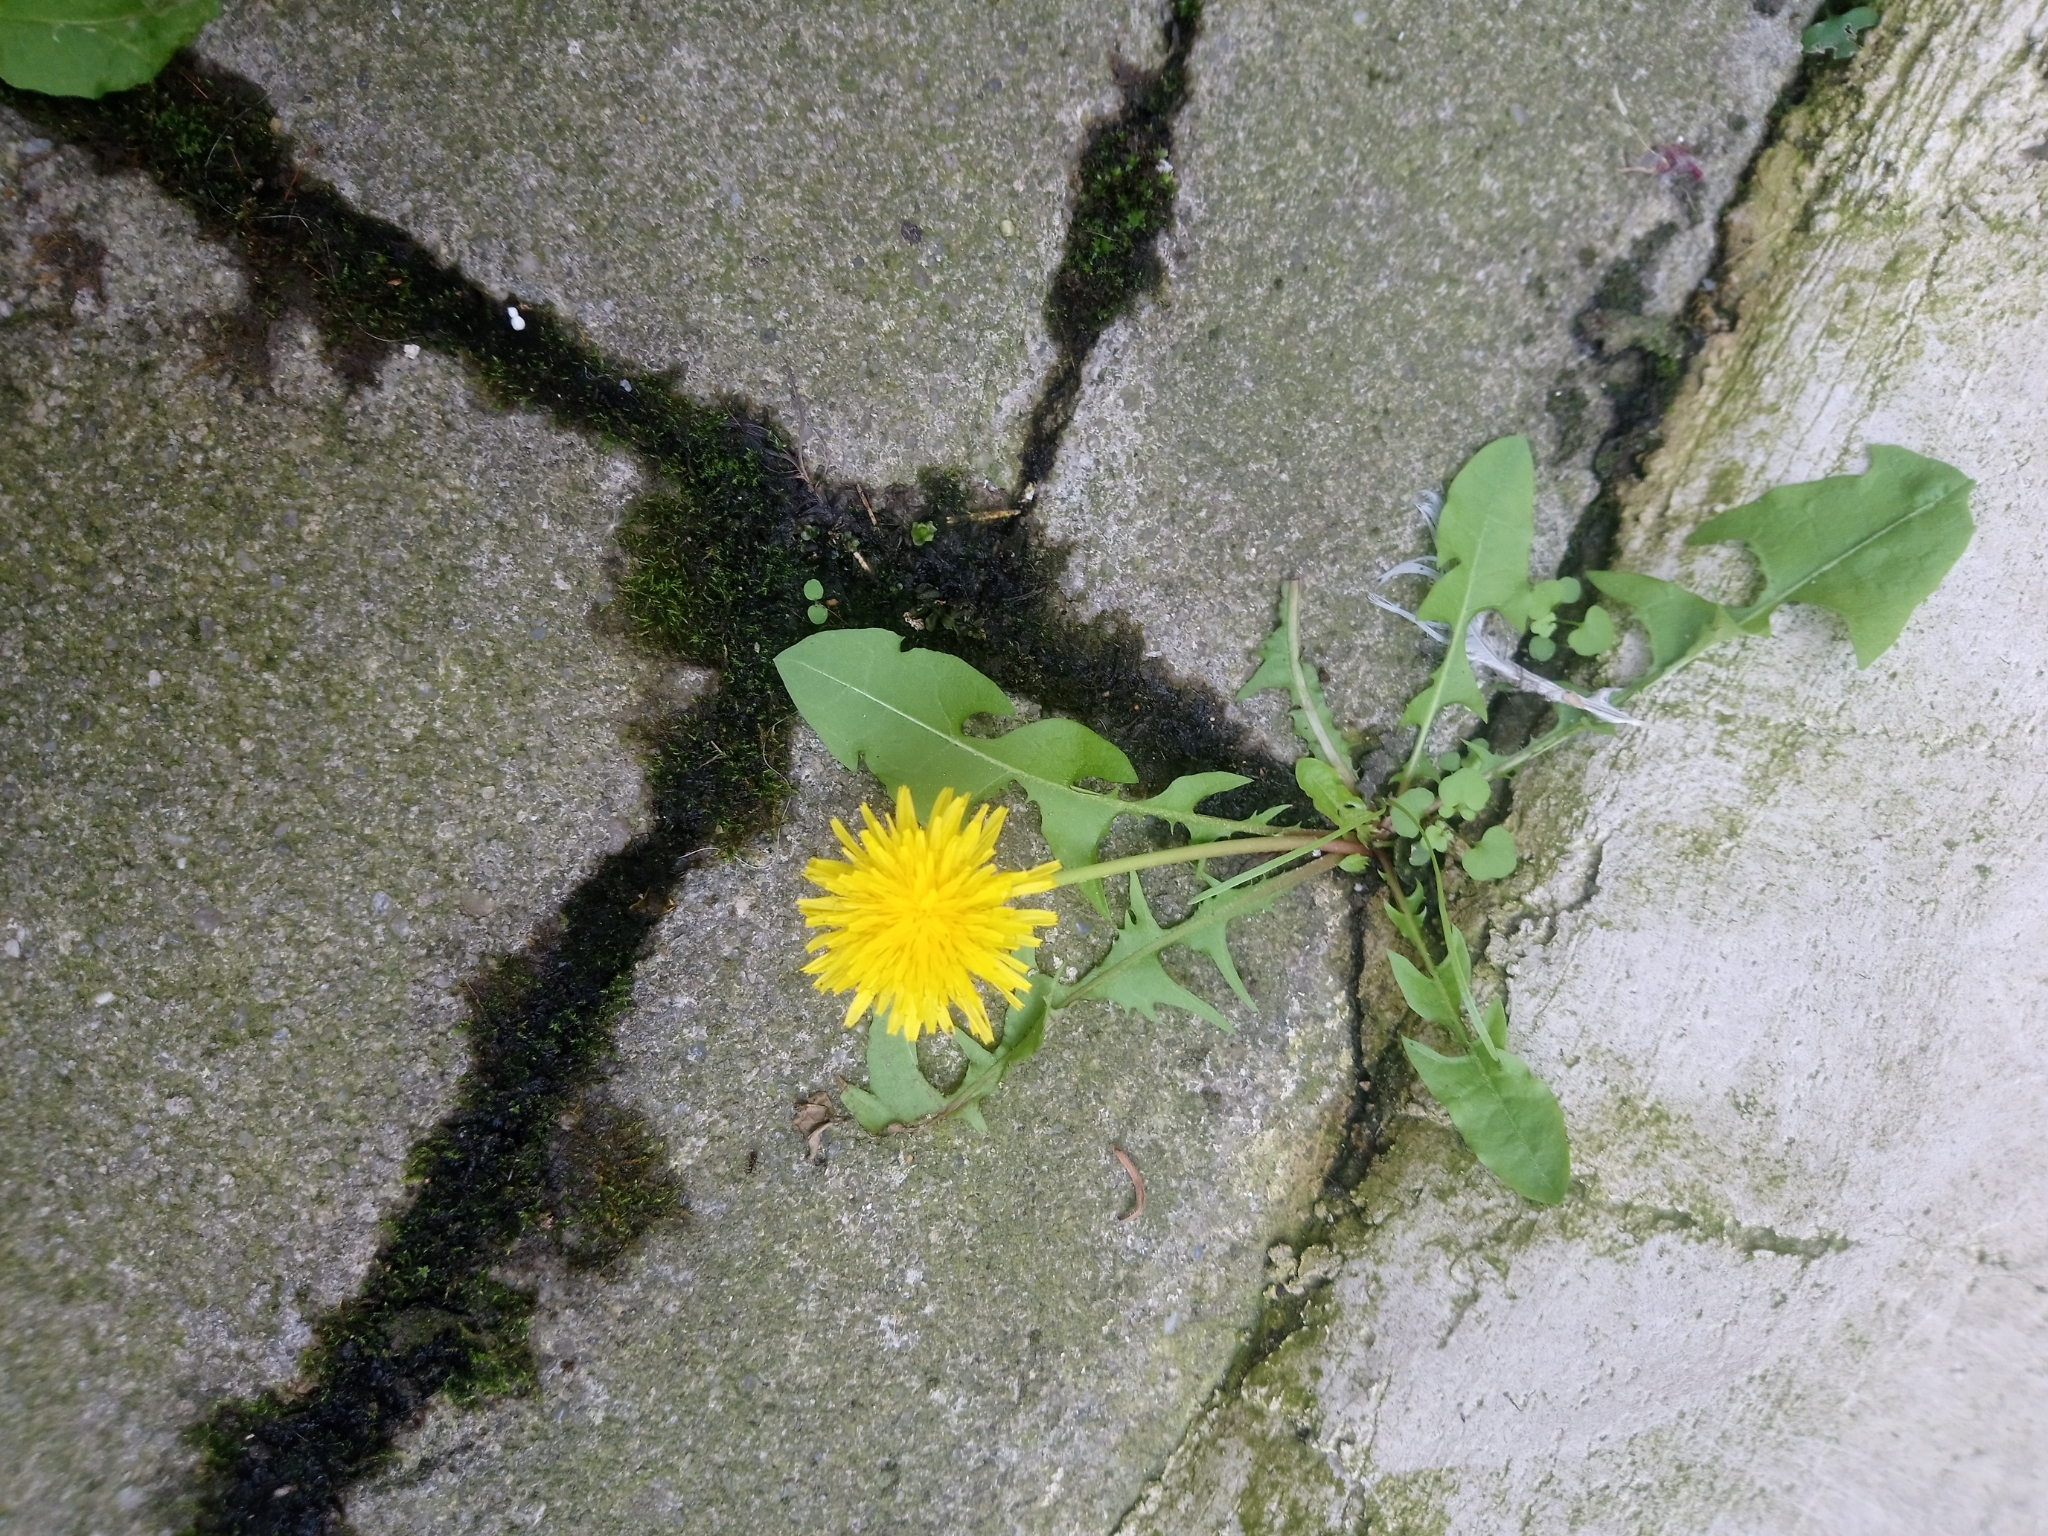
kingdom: Plantae
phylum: Tracheophyta
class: Magnoliopsida
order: Asterales
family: Asteraceae
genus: Taraxacum
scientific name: Taraxacum officinale
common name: Common dandelion
